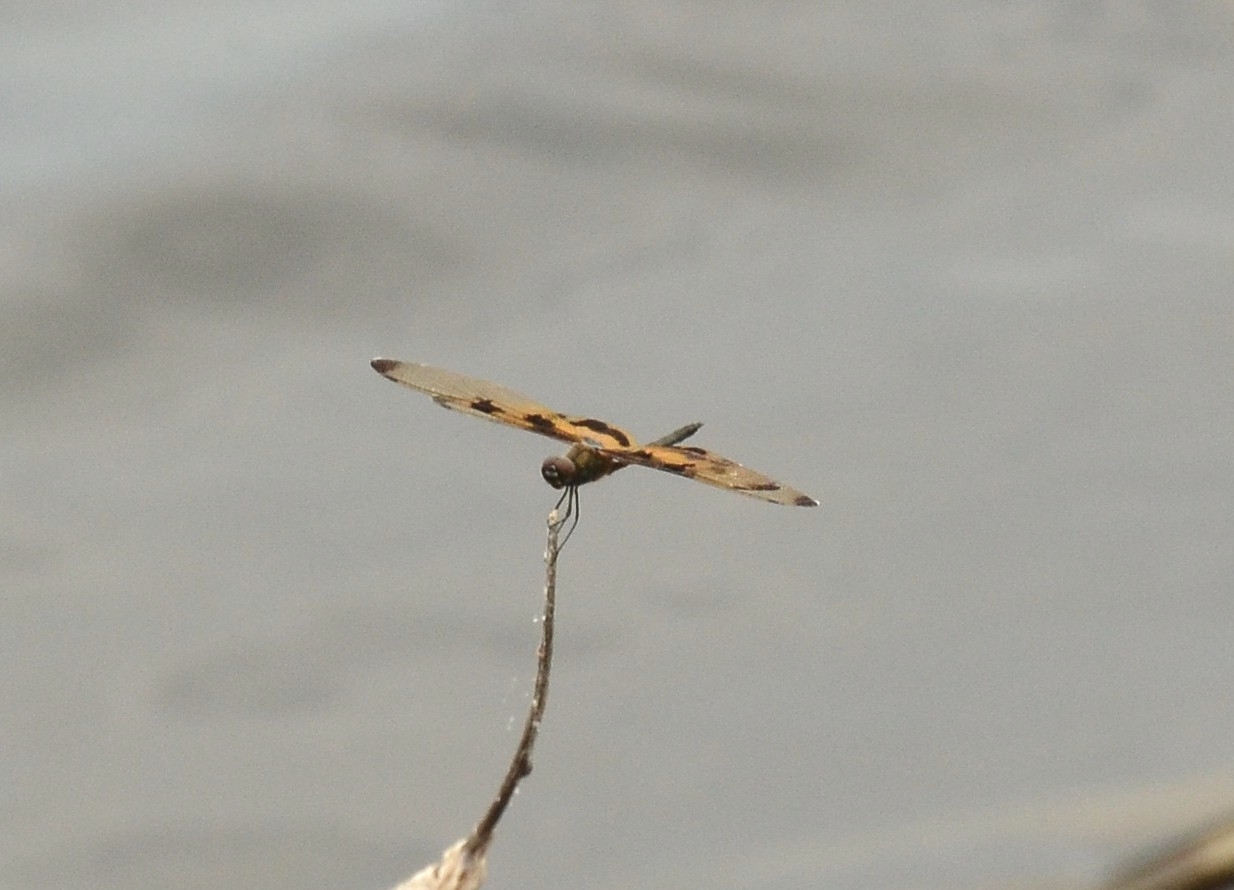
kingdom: Animalia
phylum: Arthropoda
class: Insecta
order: Odonata
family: Libellulidae
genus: Rhyothemis
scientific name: Rhyothemis variegata
